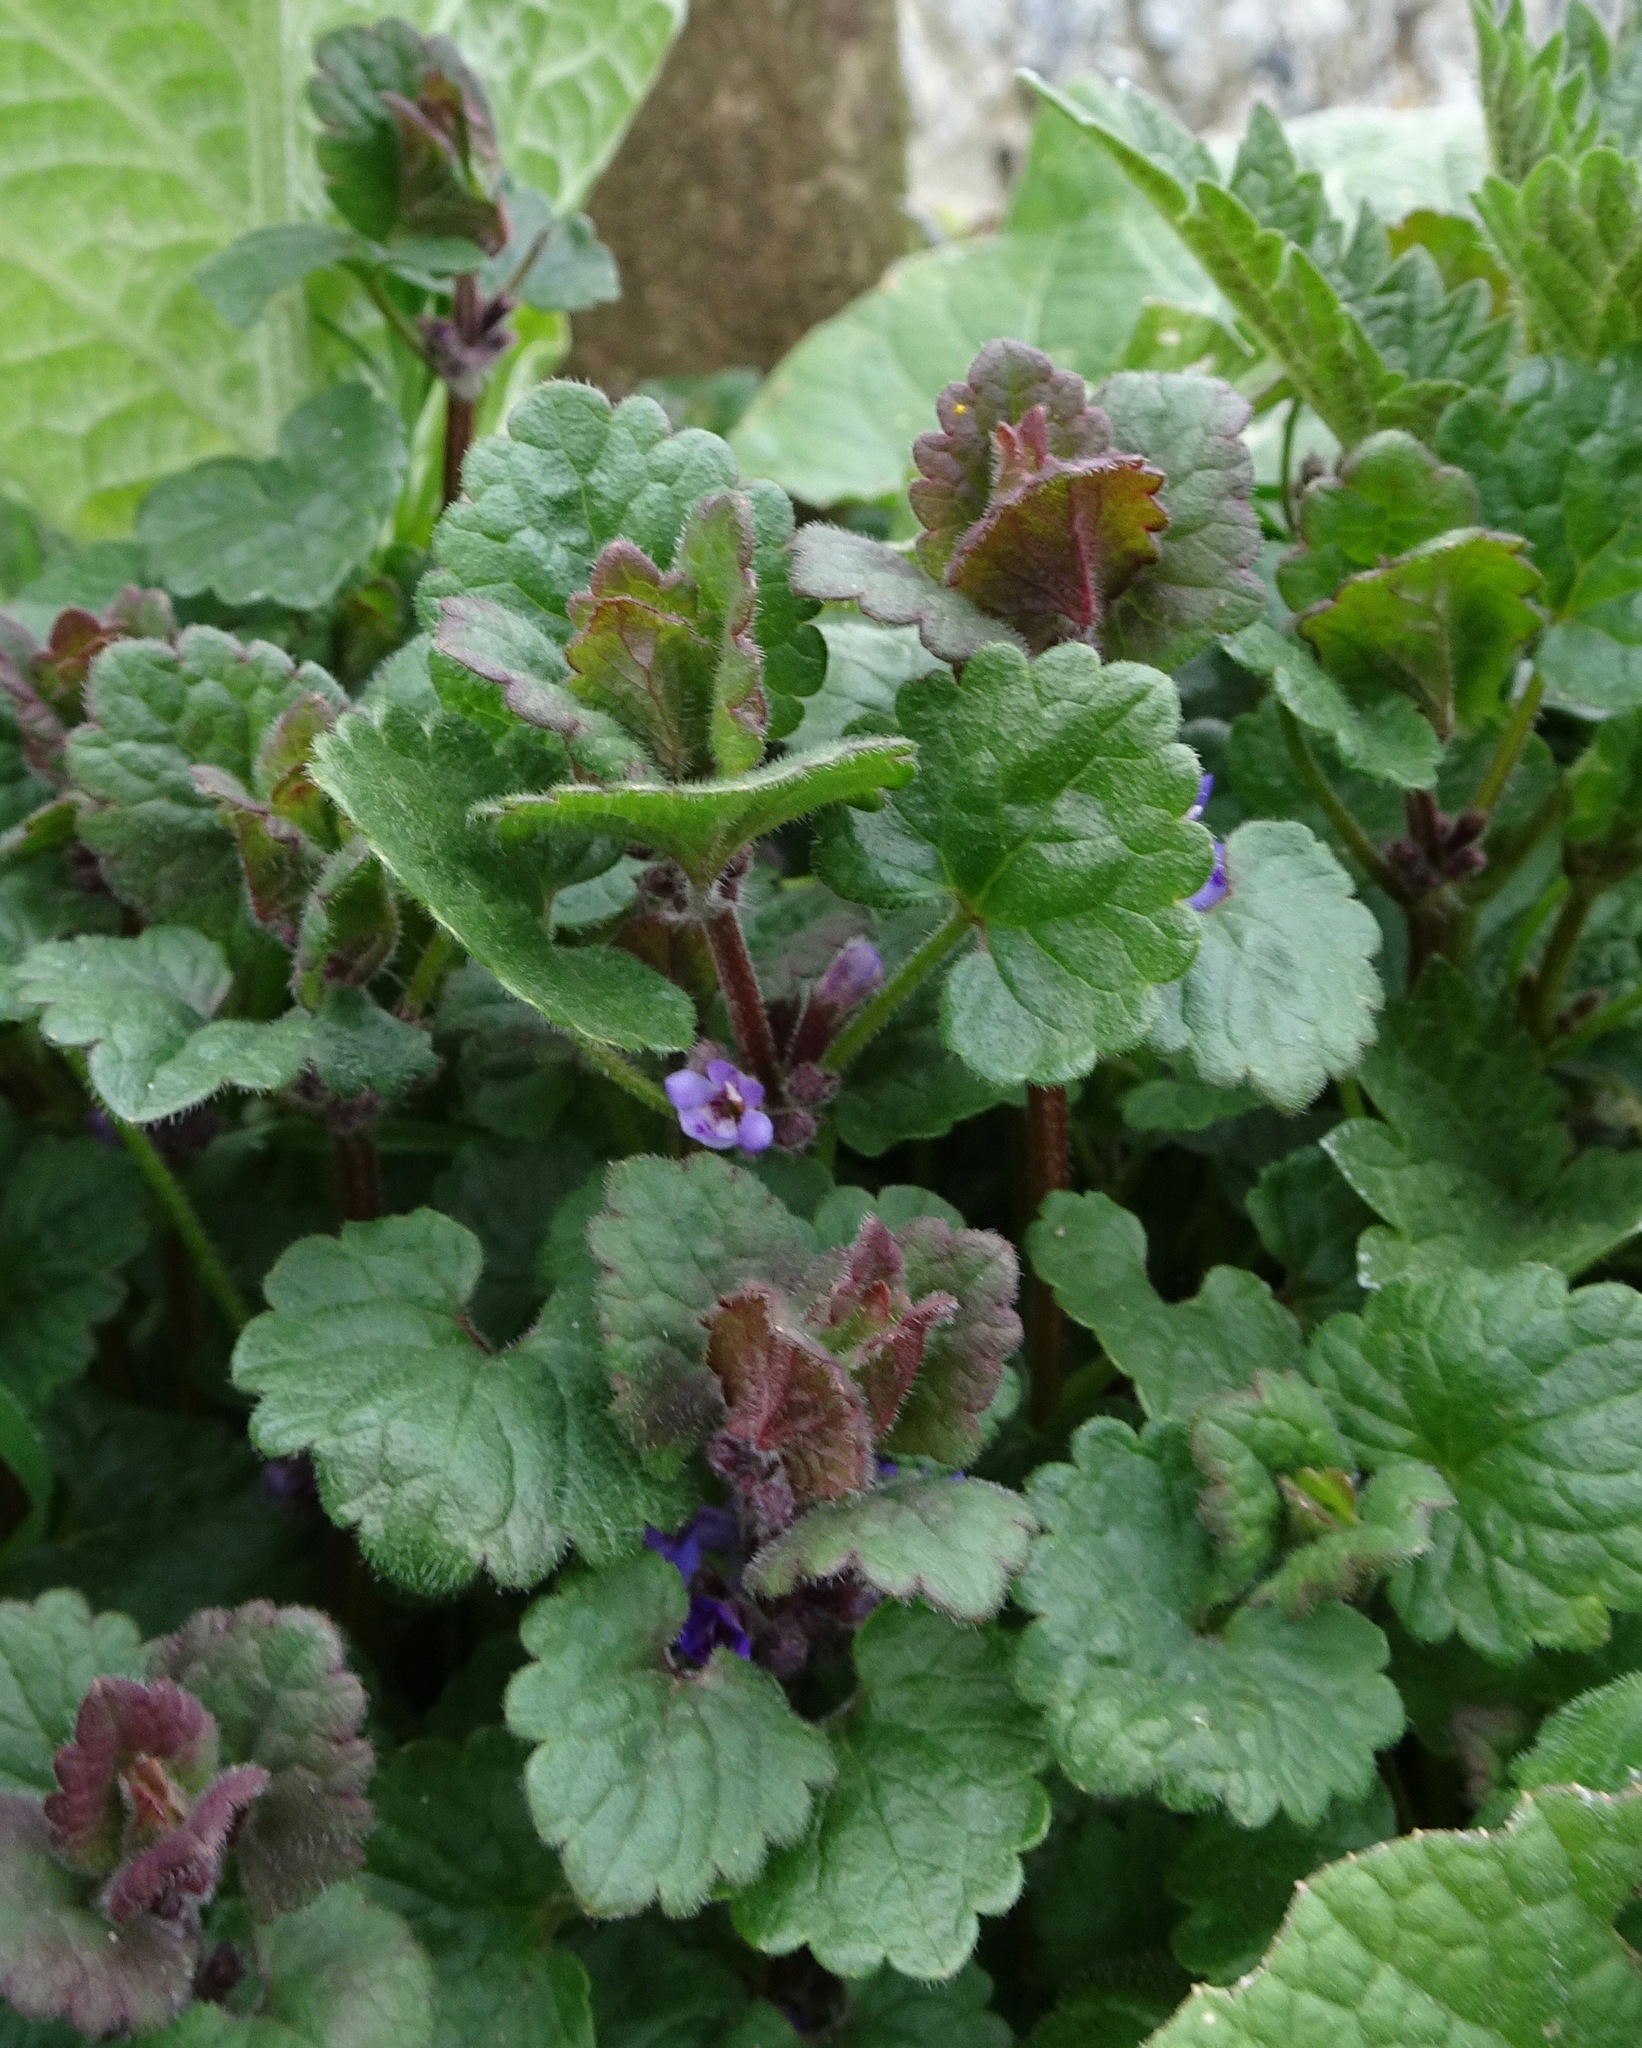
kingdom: Plantae
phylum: Tracheophyta
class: Magnoliopsida
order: Lamiales
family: Lamiaceae
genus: Glechoma
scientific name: Glechoma hederacea
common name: Ground ivy
